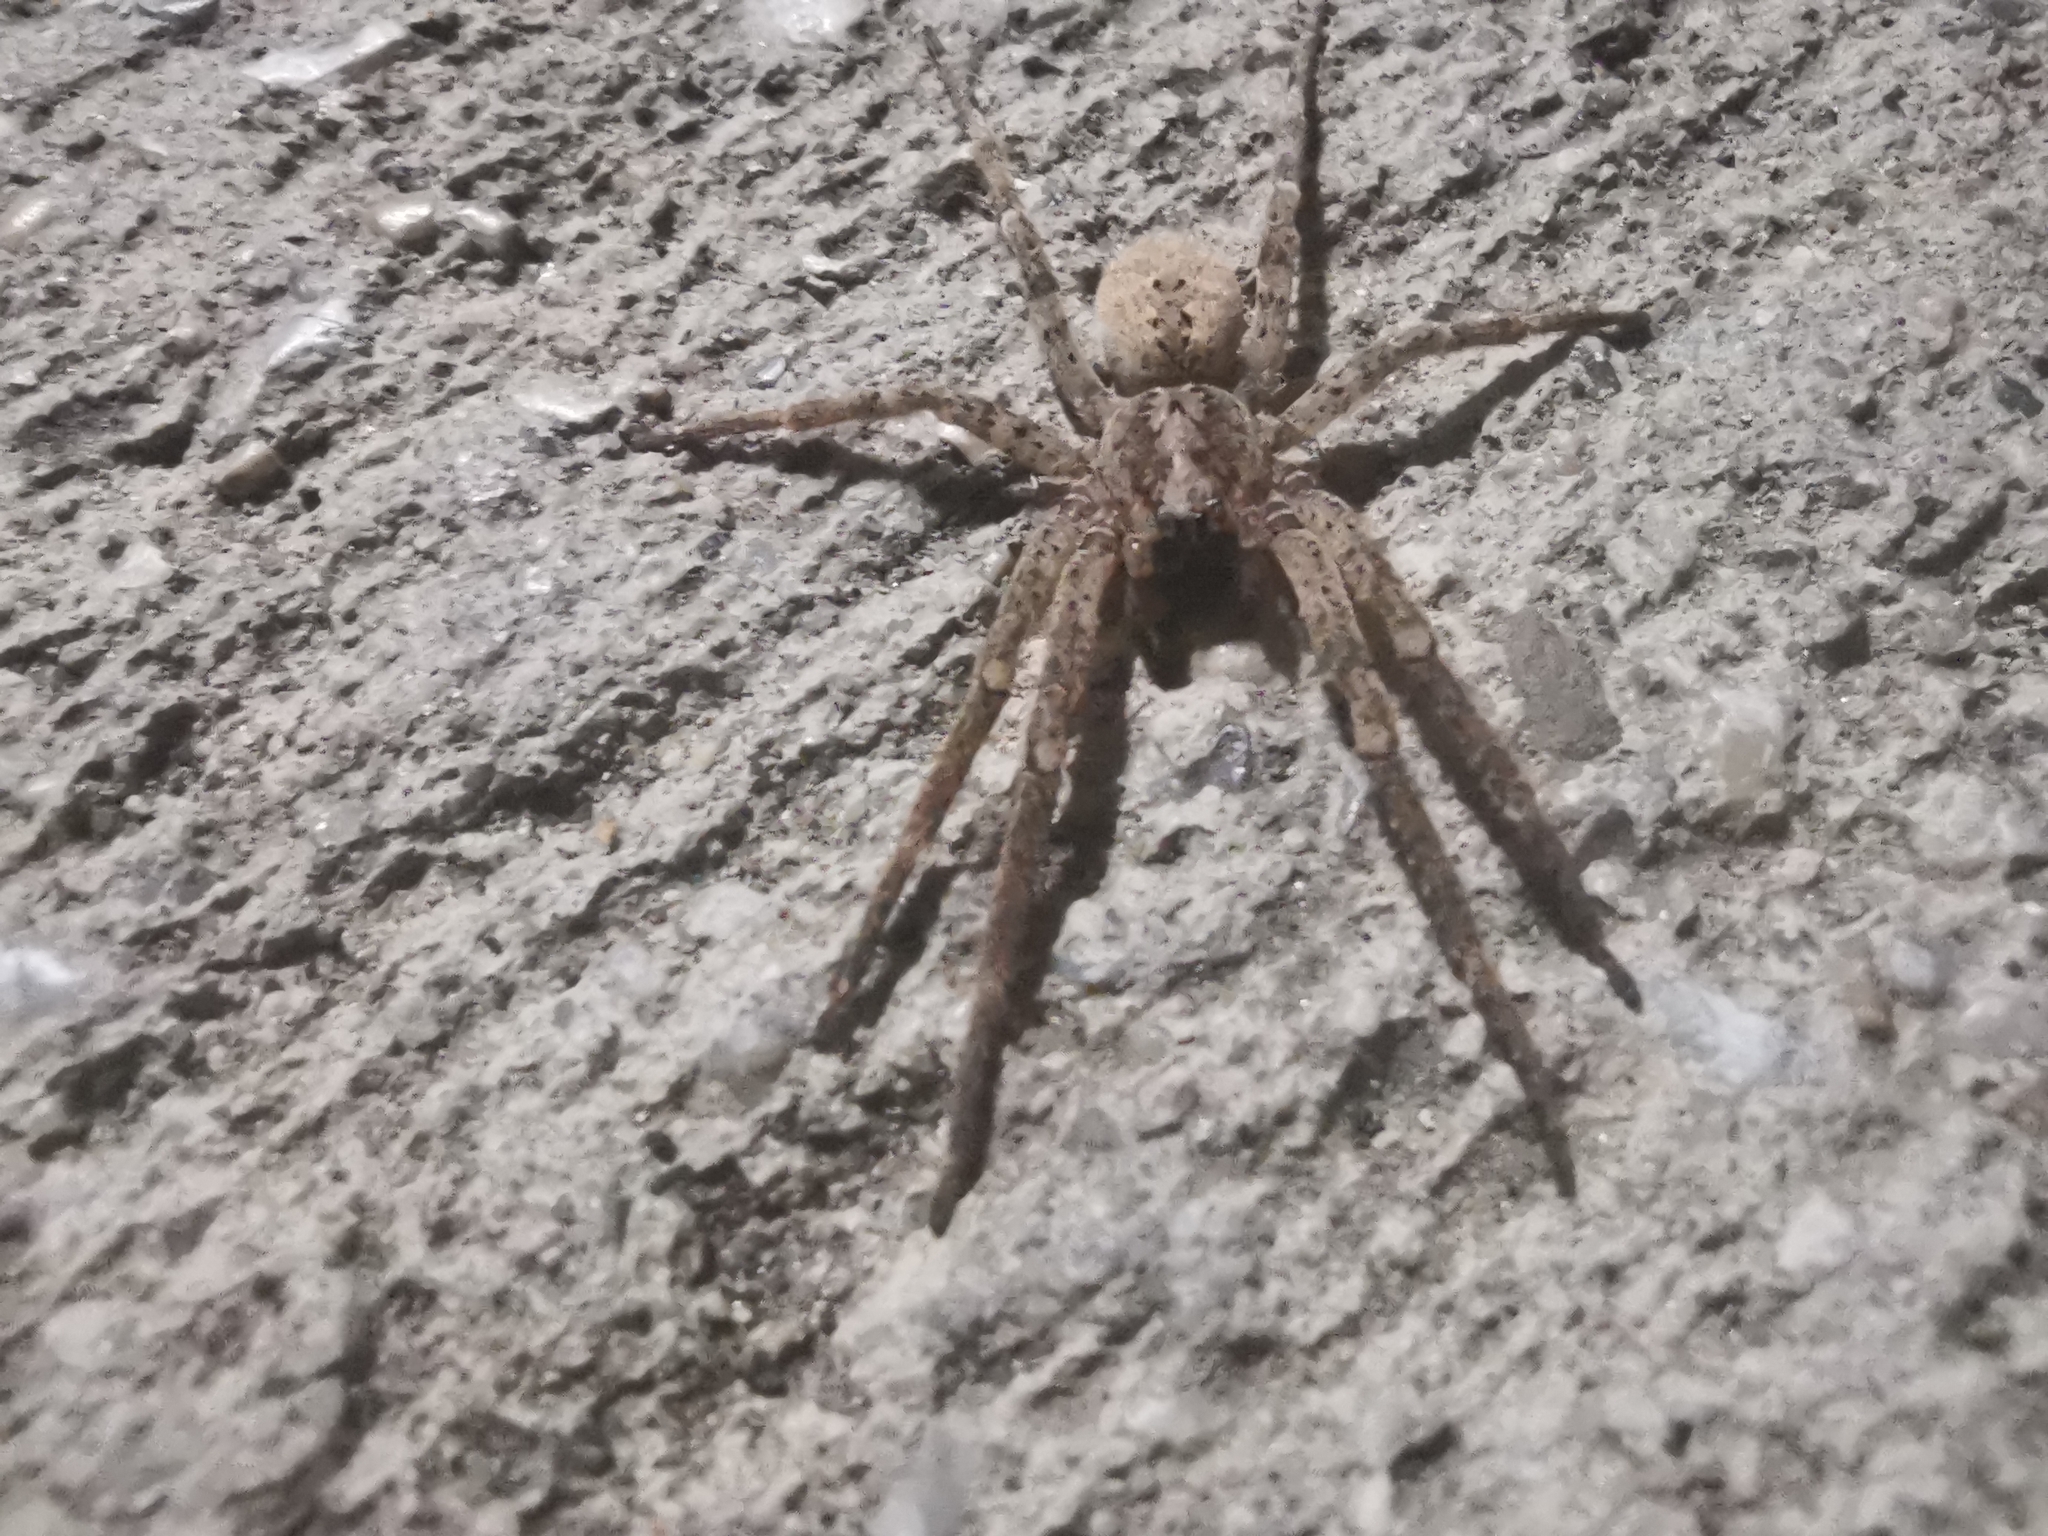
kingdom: Animalia
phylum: Arthropoda
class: Arachnida
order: Araneae
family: Zoropsidae
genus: Zoropsis
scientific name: Zoropsis spinimana
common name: Zoropsid spider
